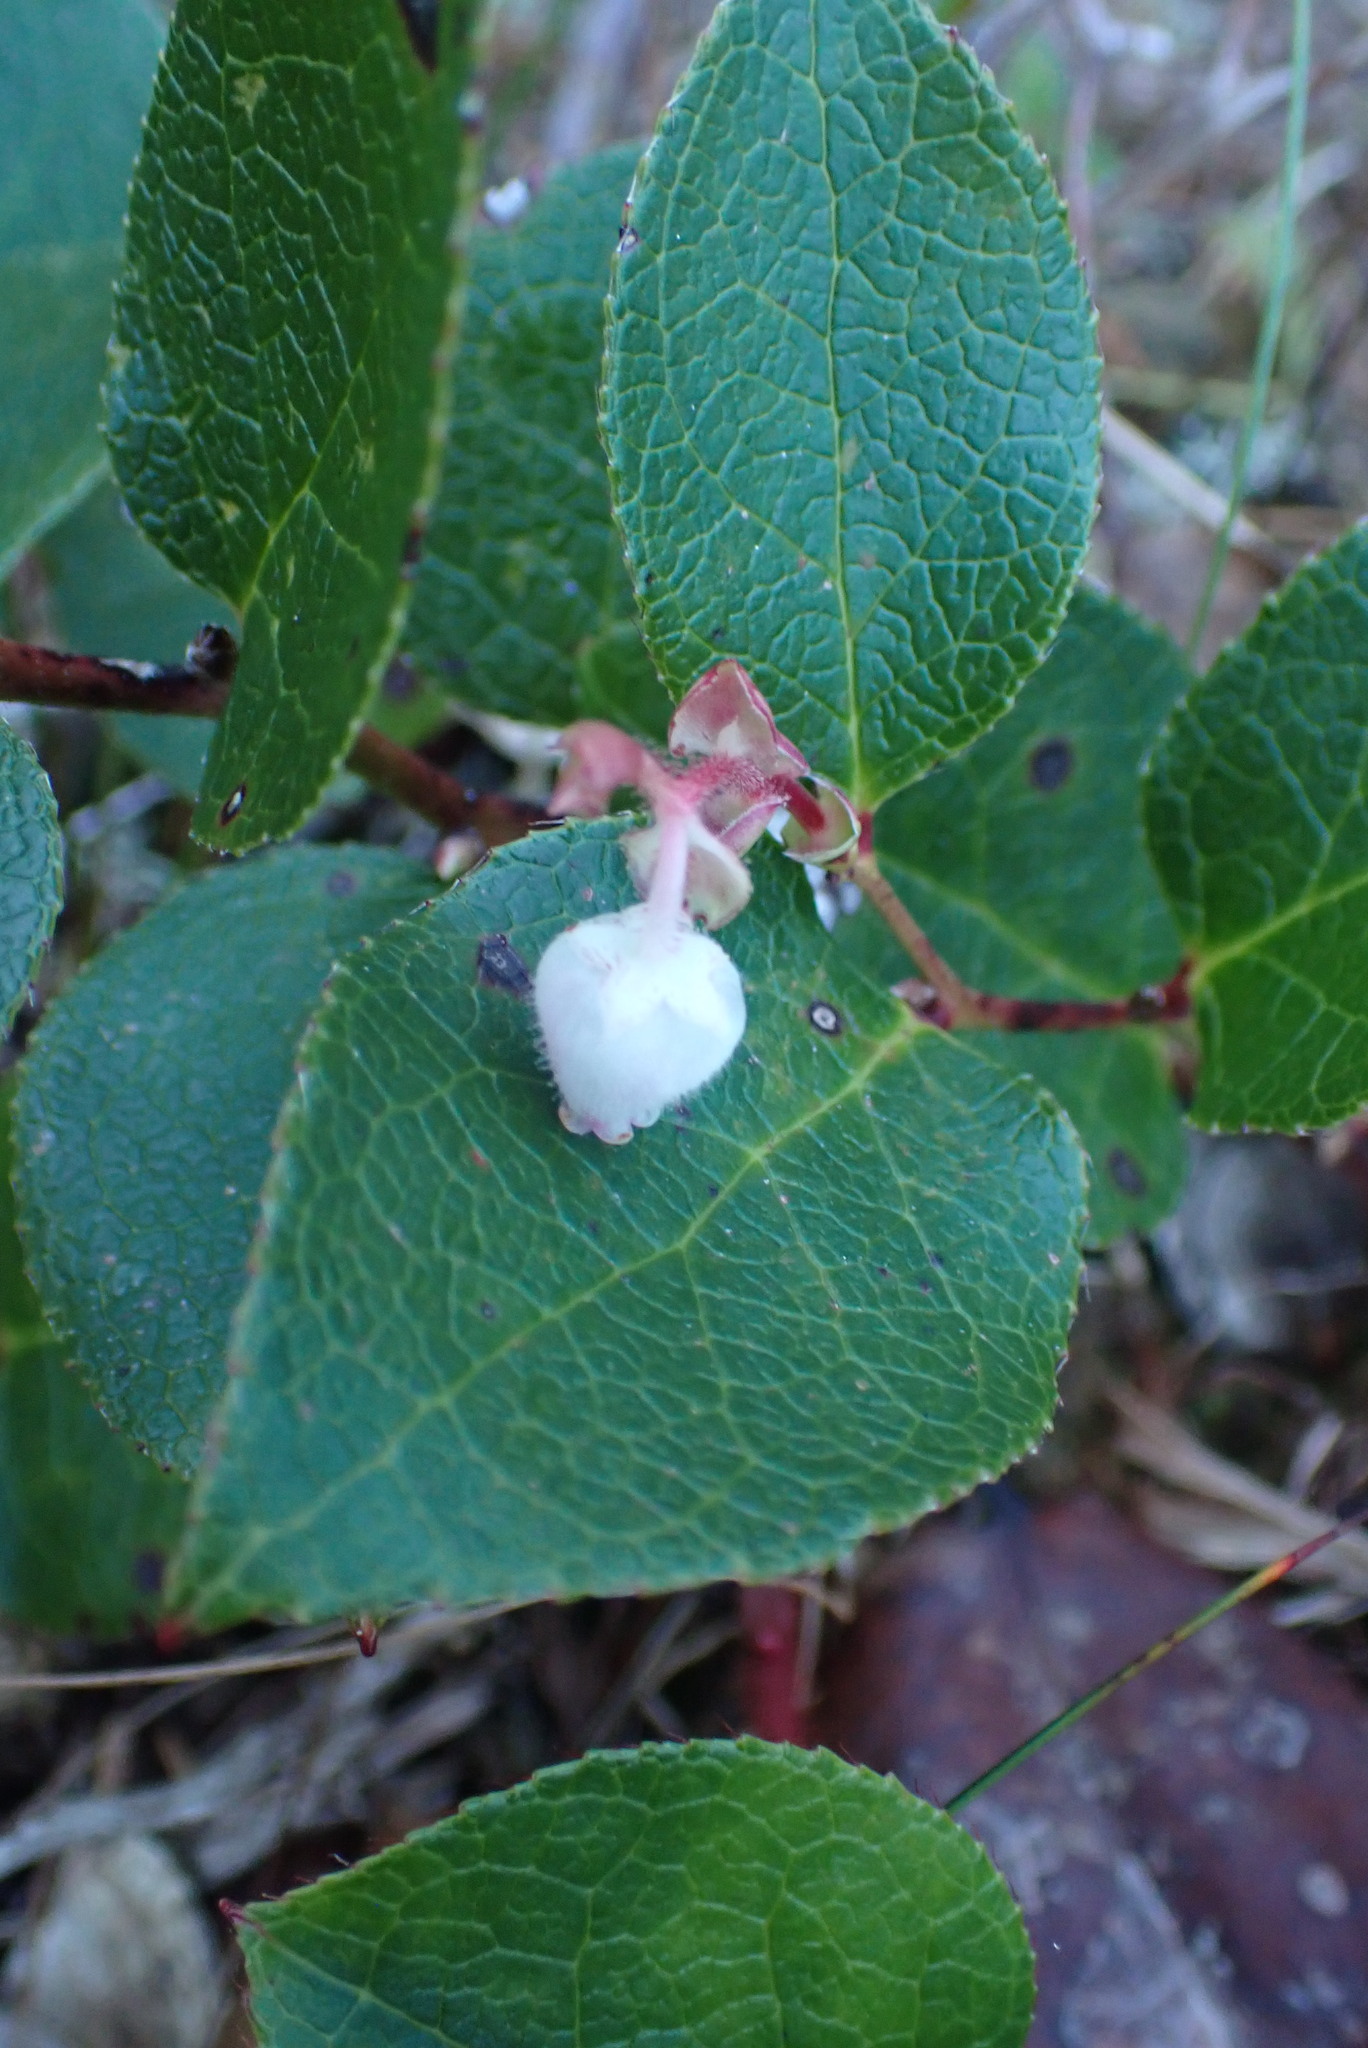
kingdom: Plantae
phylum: Tracheophyta
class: Magnoliopsida
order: Ericales
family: Ericaceae
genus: Gaultheria
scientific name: Gaultheria shallon
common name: Shallon
